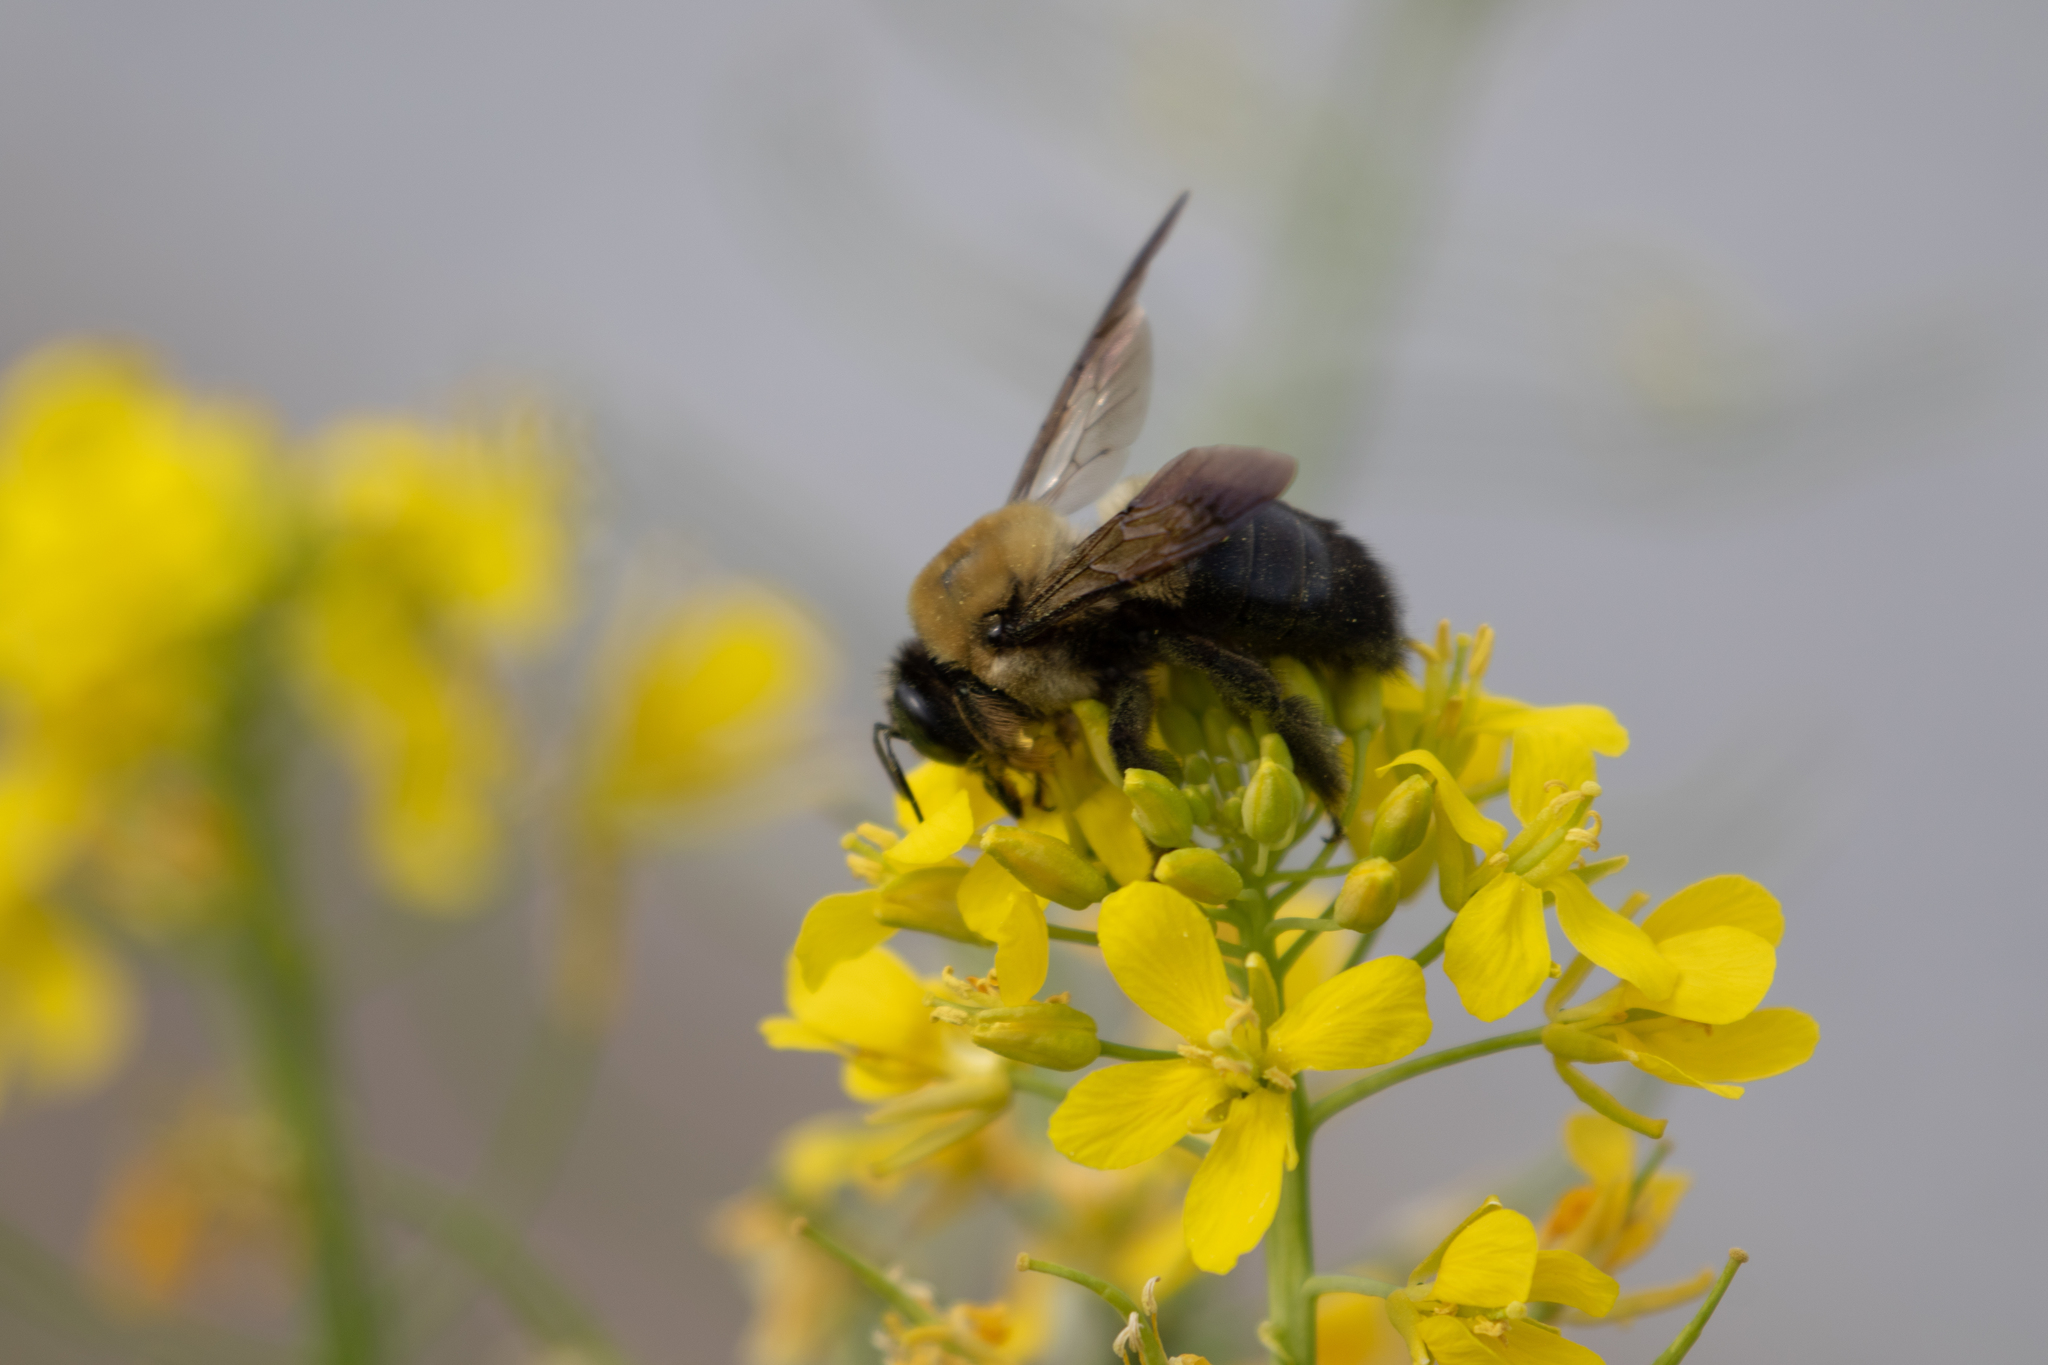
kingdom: Animalia
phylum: Arthropoda
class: Insecta
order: Hymenoptera
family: Apidae
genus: Xylocopa
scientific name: Xylocopa virginica
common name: Carpenter bee
